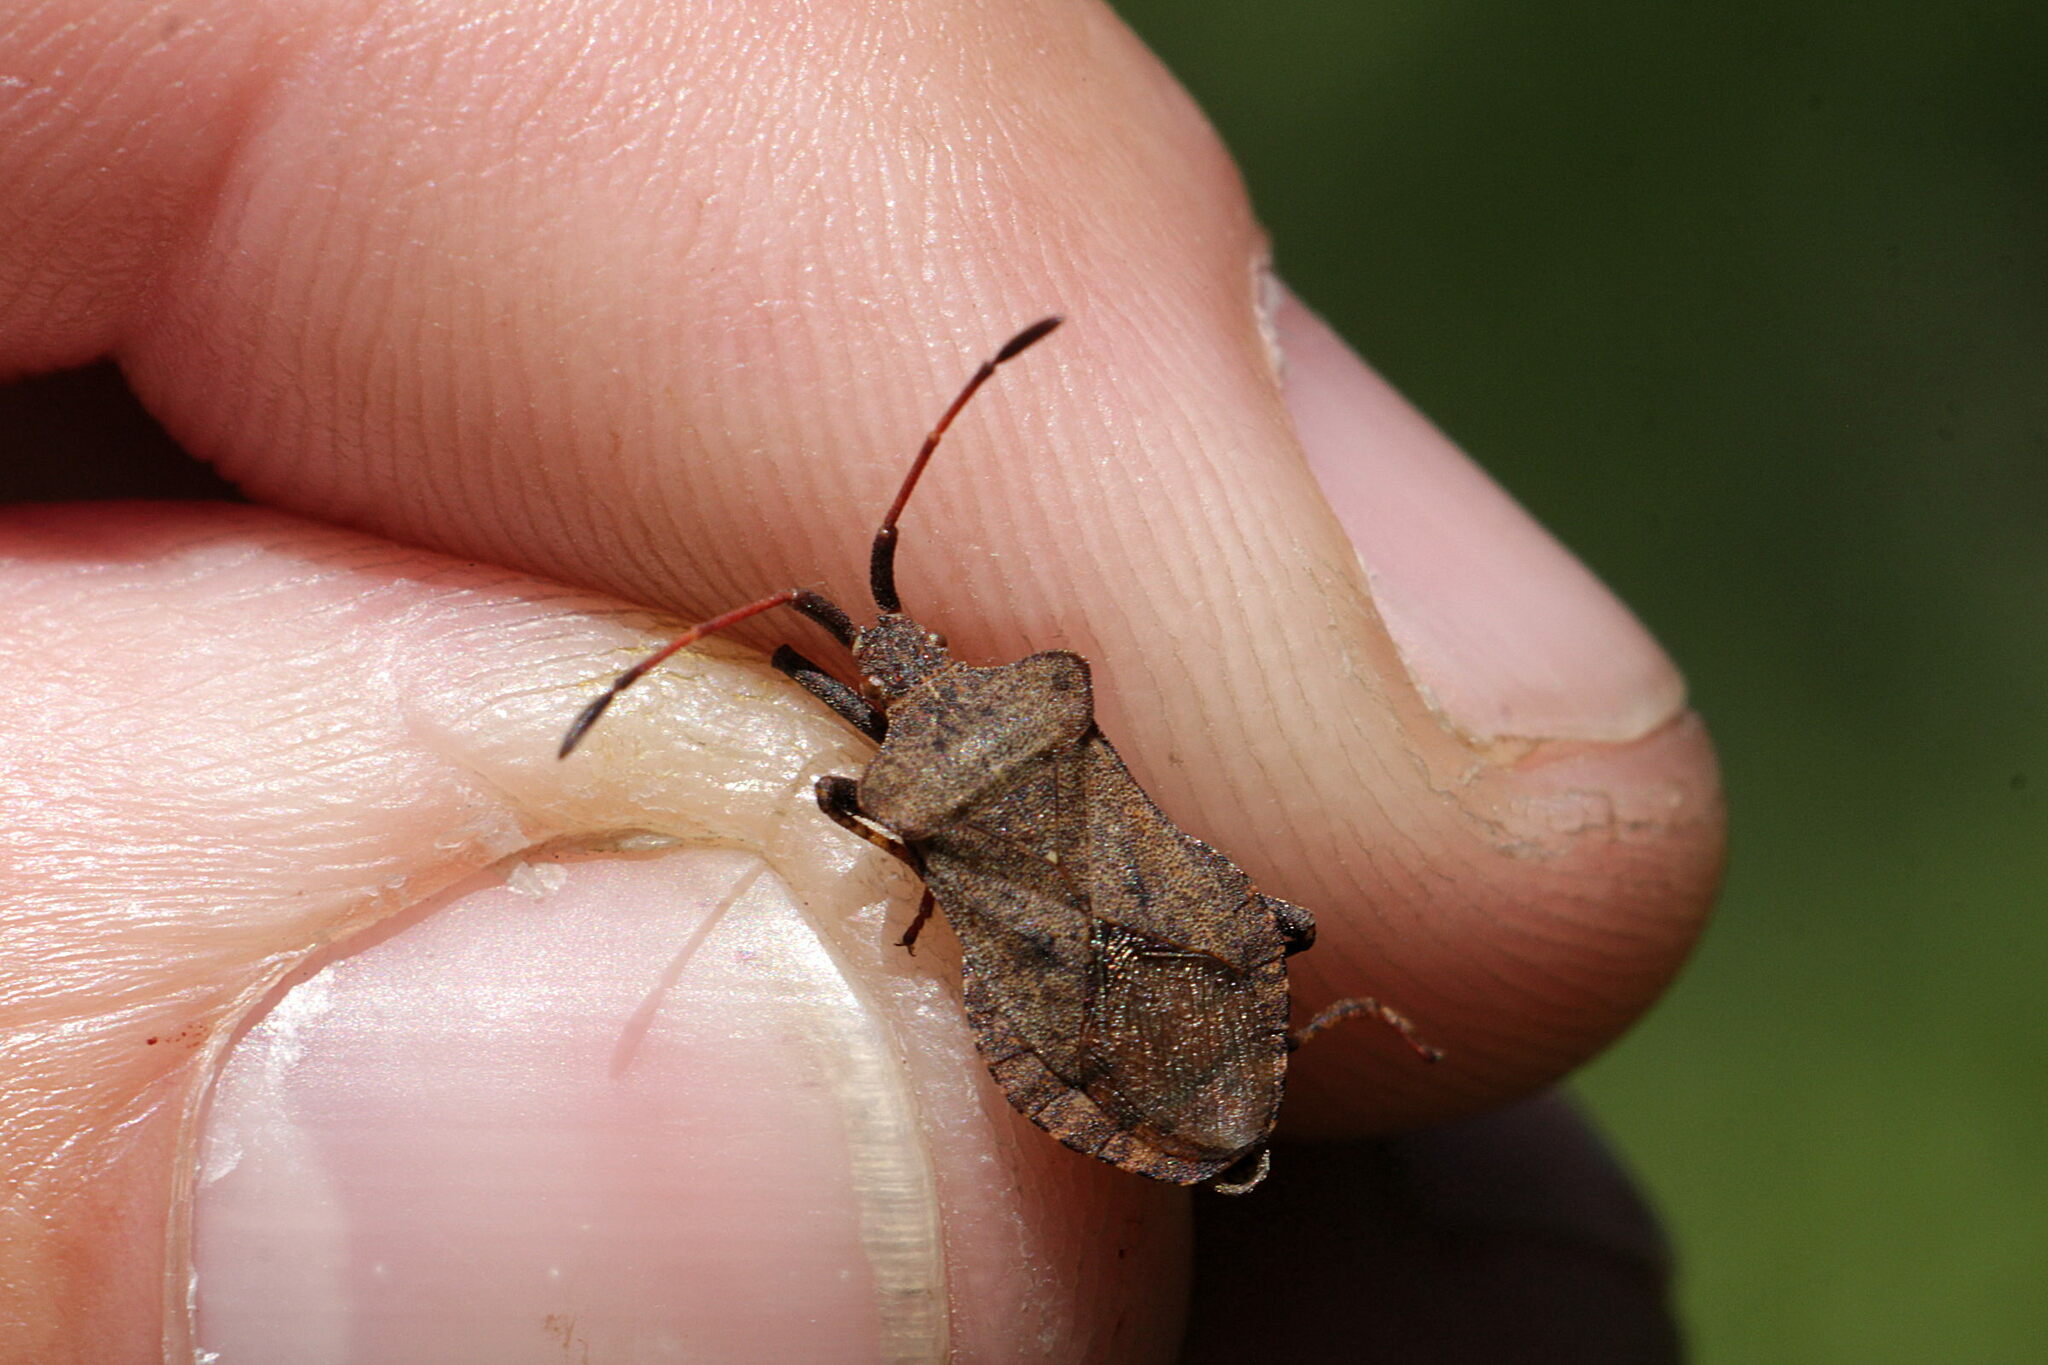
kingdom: Animalia
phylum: Arthropoda
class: Insecta
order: Hemiptera
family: Coreidae
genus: Coreus
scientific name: Coreus marginatus
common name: Dock bug
